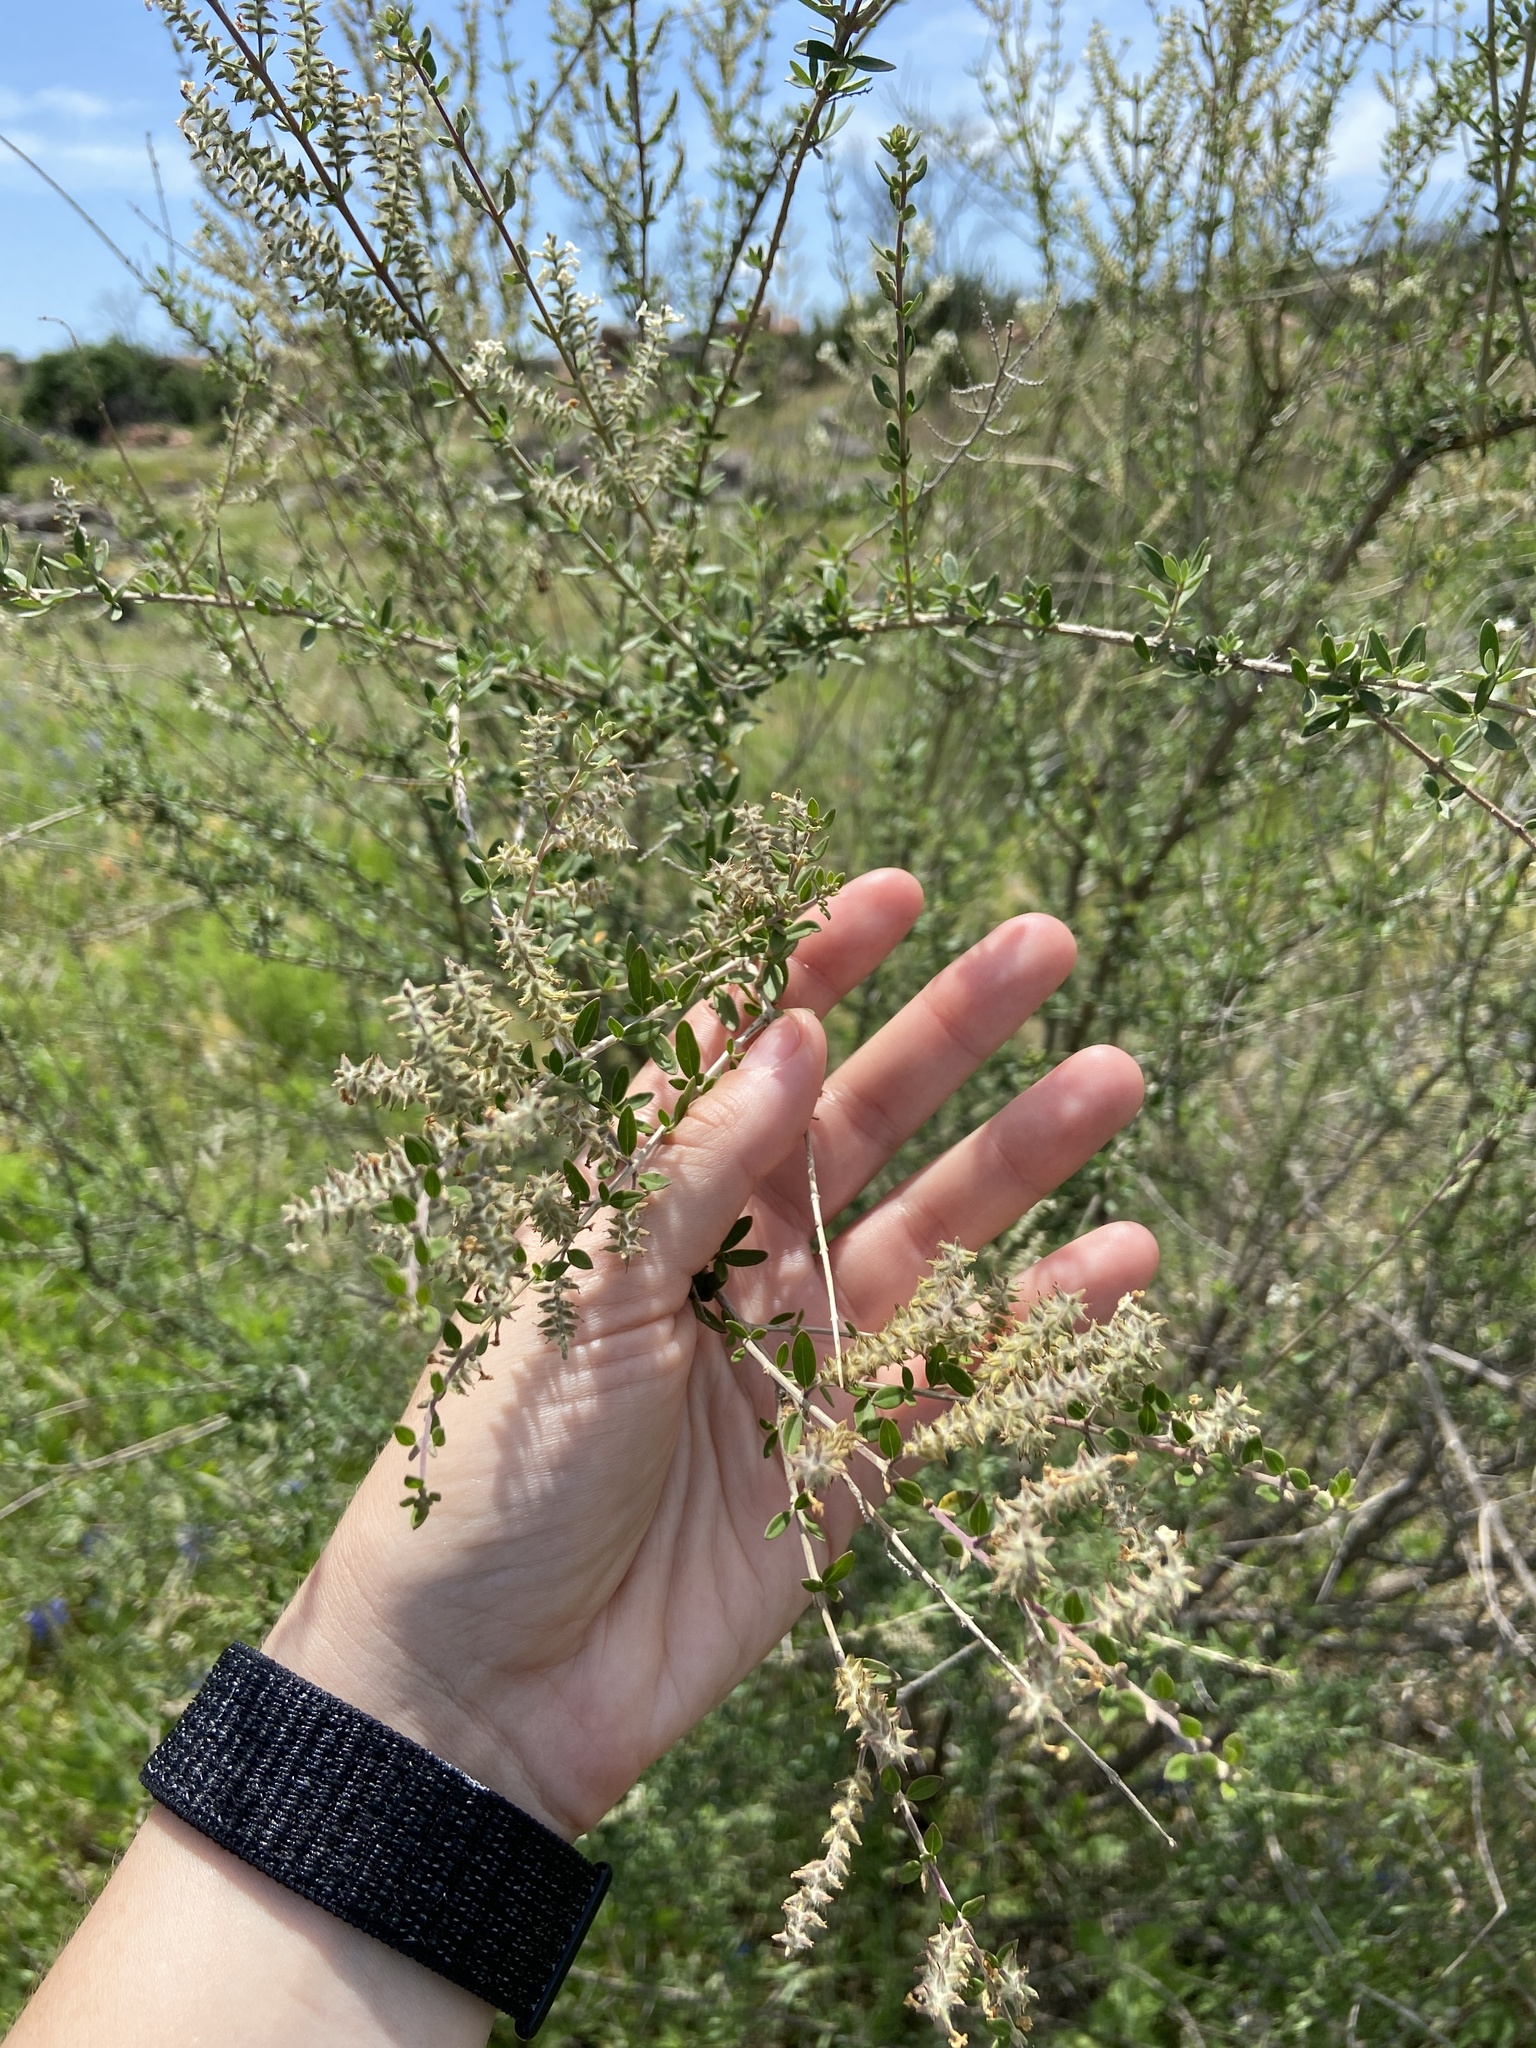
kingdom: Plantae
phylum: Tracheophyta
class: Magnoliopsida
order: Lamiales
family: Verbenaceae
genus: Aloysia
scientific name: Aloysia gratissima
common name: Common bee-brush
